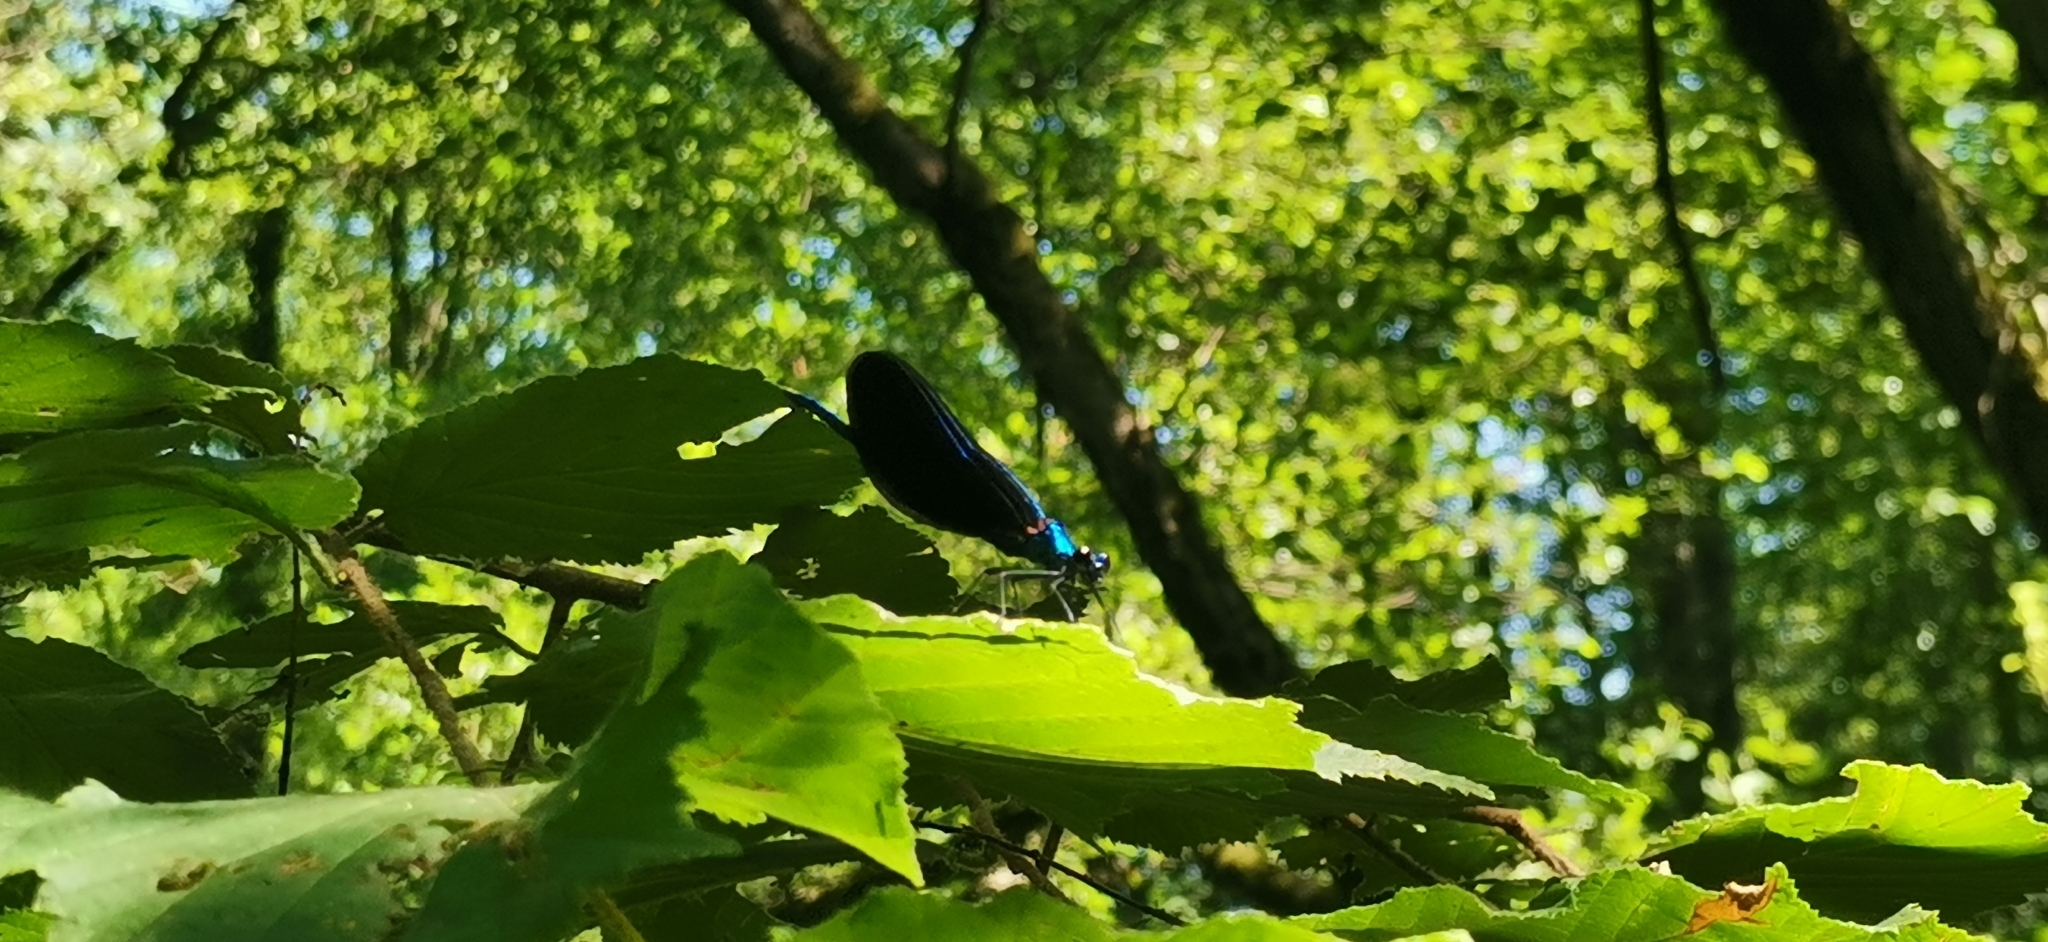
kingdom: Animalia
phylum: Arthropoda
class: Insecta
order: Odonata
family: Calopterygidae
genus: Calopteryx
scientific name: Calopteryx virgo
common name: Beautiful demoiselle
